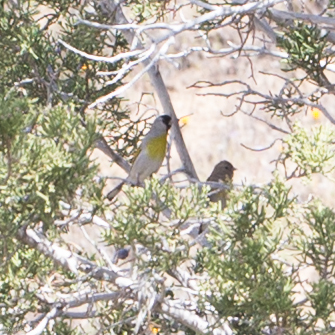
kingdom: Animalia
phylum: Chordata
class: Aves
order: Passeriformes
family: Fringillidae
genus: Spinus
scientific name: Spinus lawrencei
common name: Lawrence's goldfinch
